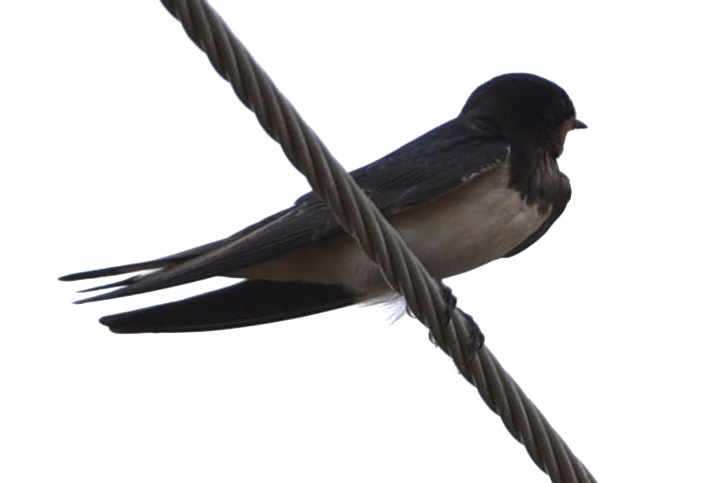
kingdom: Animalia
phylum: Chordata
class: Aves
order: Passeriformes
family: Hirundinidae
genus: Hirundo
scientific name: Hirundo rustica
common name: Barn swallow
